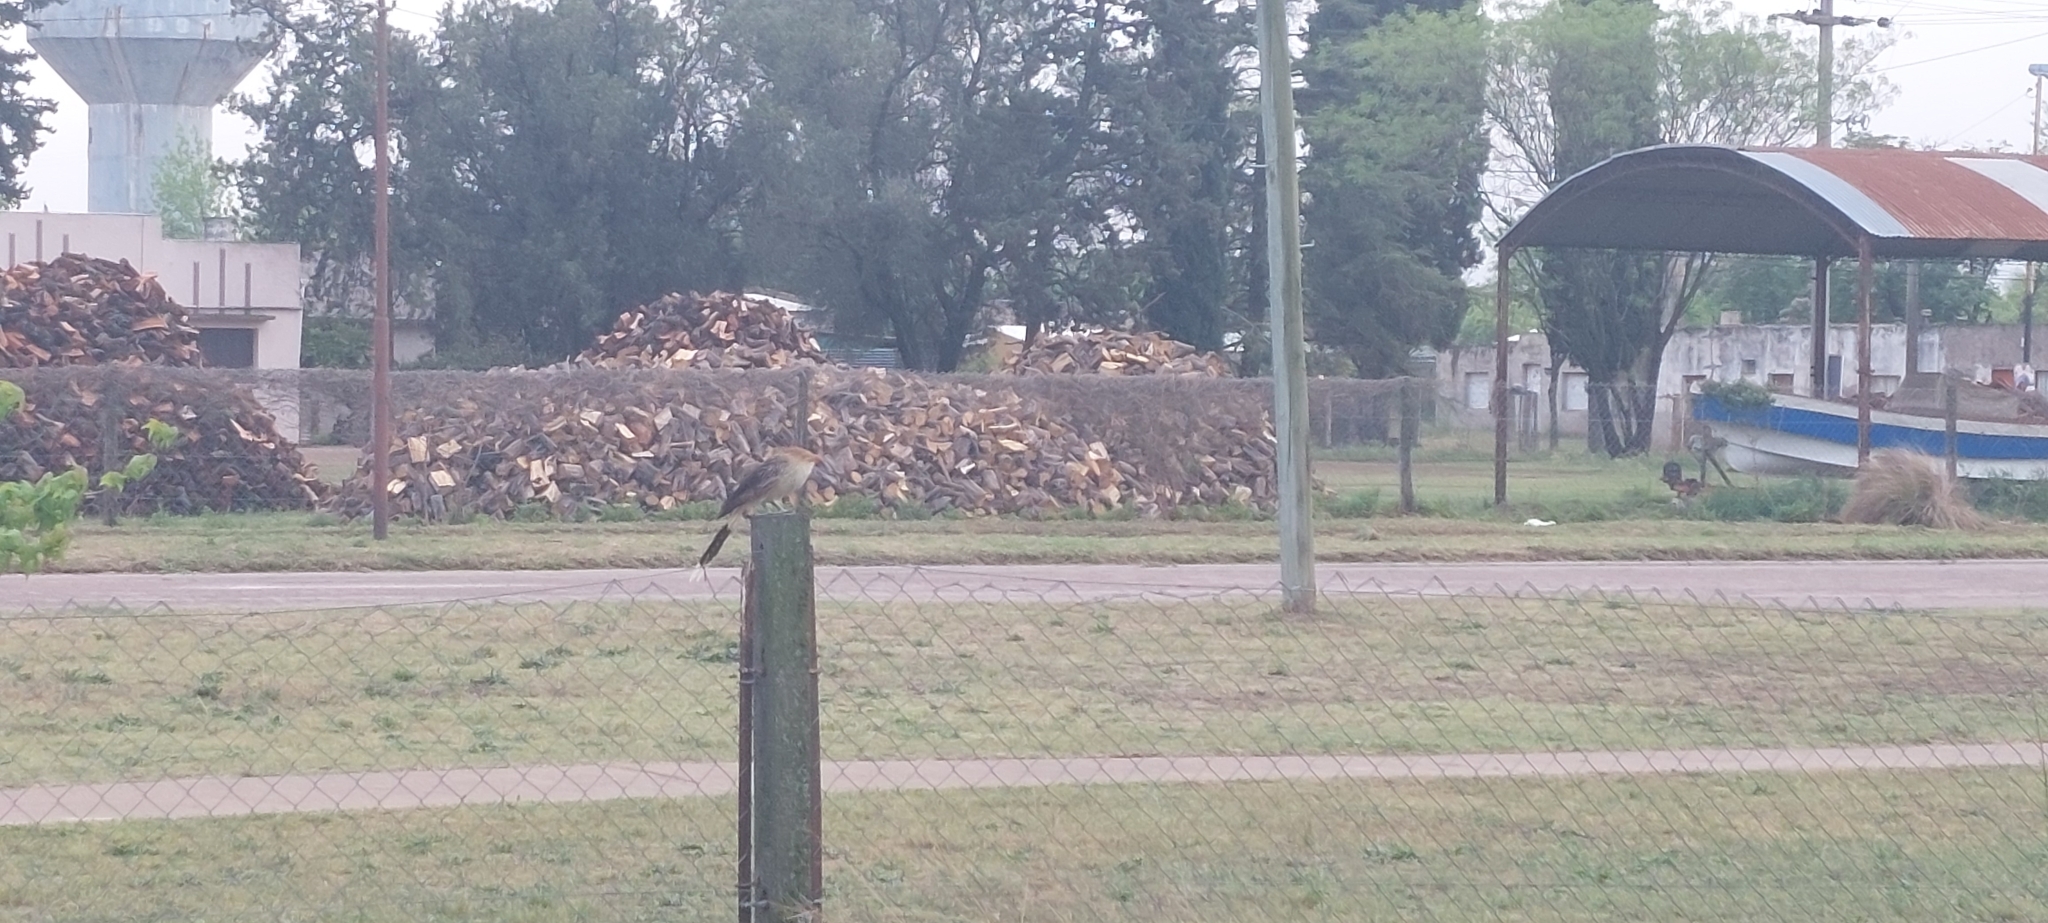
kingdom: Animalia
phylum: Chordata
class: Aves
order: Cuculiformes
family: Cuculidae
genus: Guira
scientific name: Guira guira
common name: Guira cuckoo
